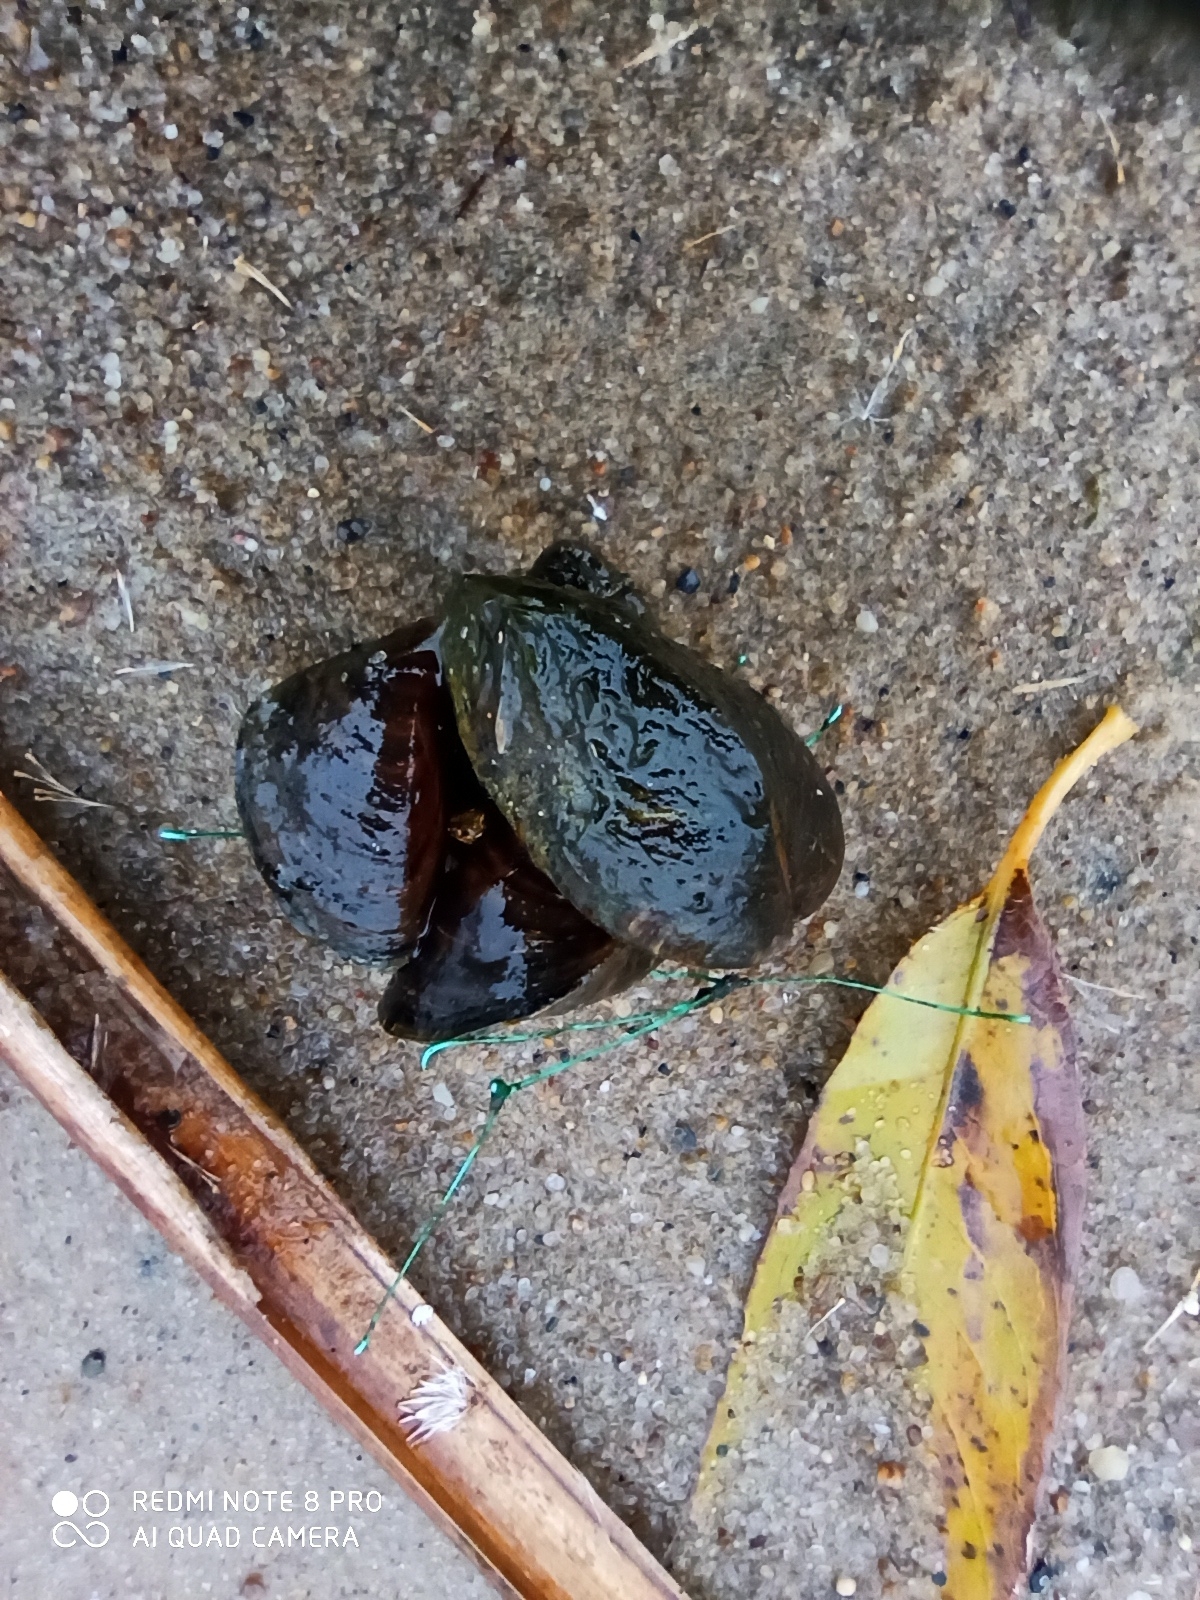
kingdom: Animalia
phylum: Mollusca
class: Bivalvia
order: Myida
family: Dreissenidae
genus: Dreissena
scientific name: Dreissena polymorpha
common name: Zebra mussel
